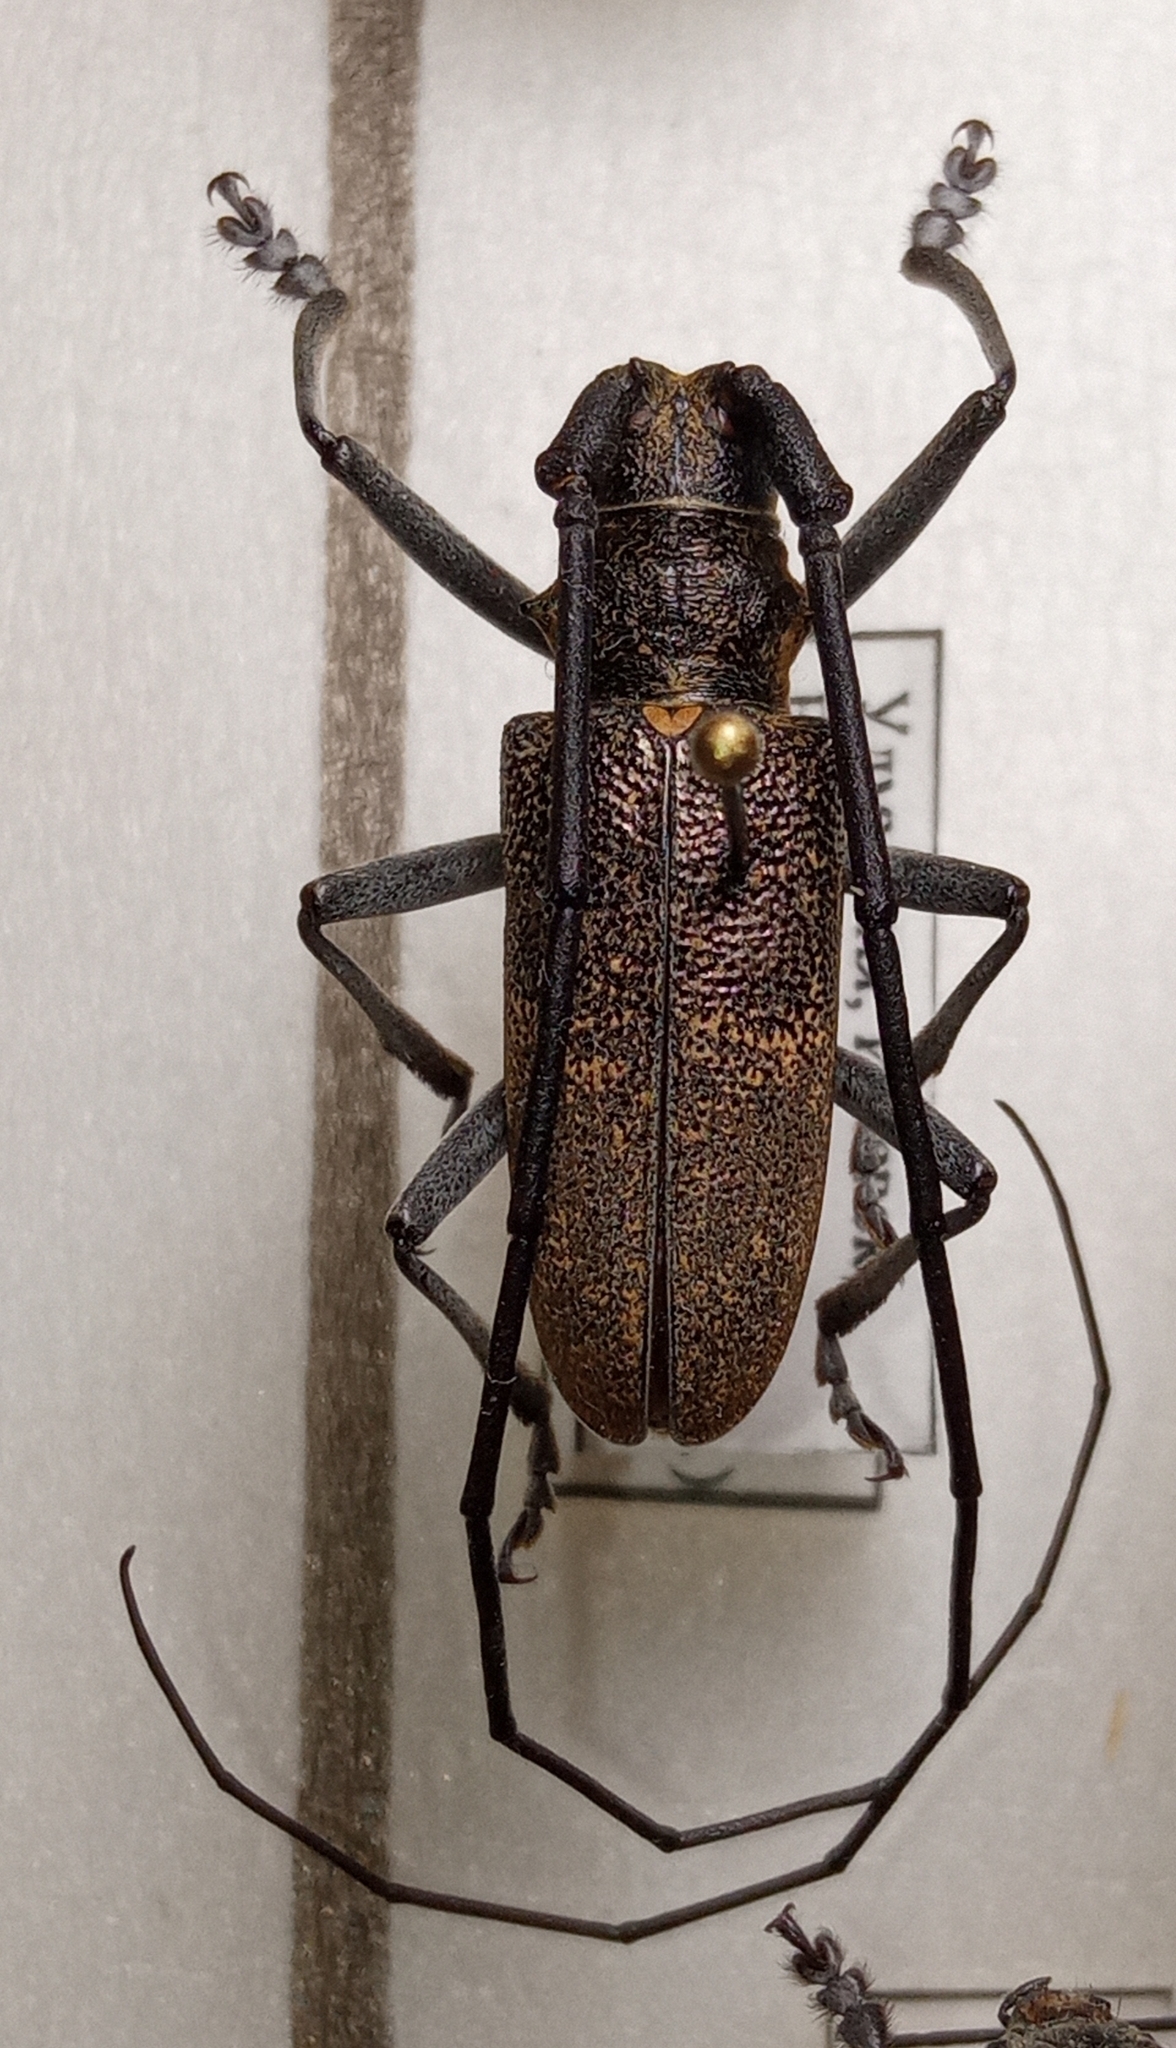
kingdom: Animalia
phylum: Arthropoda
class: Insecta
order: Coleoptera
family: Cerambycidae
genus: Monochamus
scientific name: Monochamus galloprovincialis
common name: Pine sawyer
